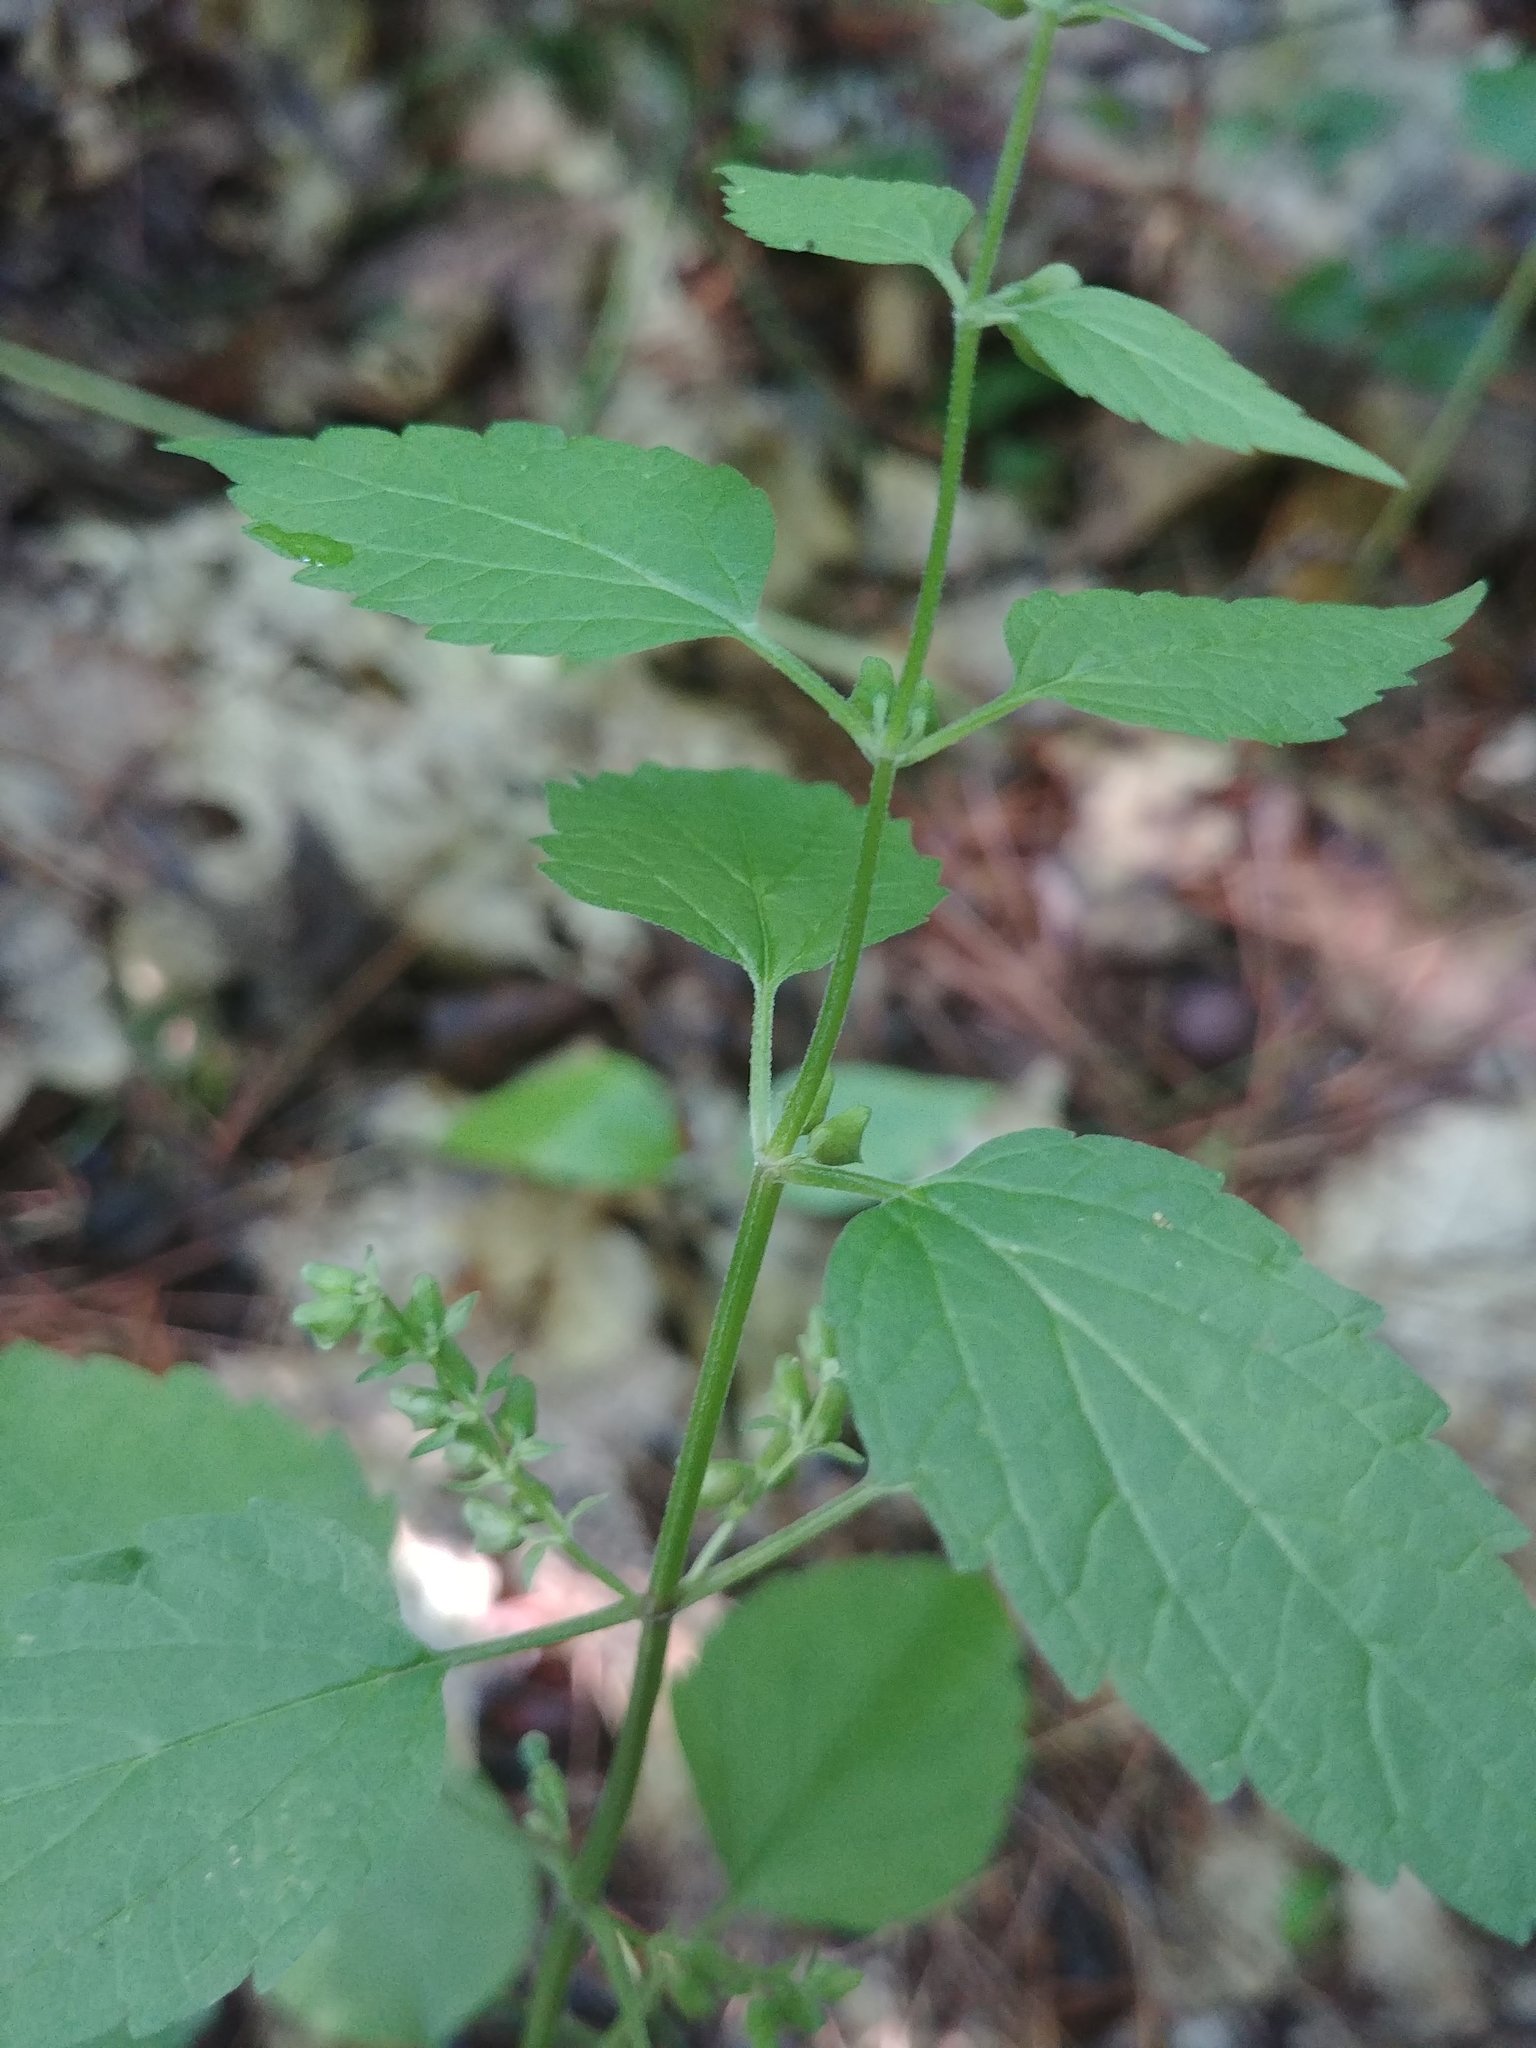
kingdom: Plantae
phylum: Tracheophyta
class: Magnoliopsida
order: Lamiales
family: Lamiaceae
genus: Scutellaria
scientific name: Scutellaria lateriflora
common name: Blue skullcap
